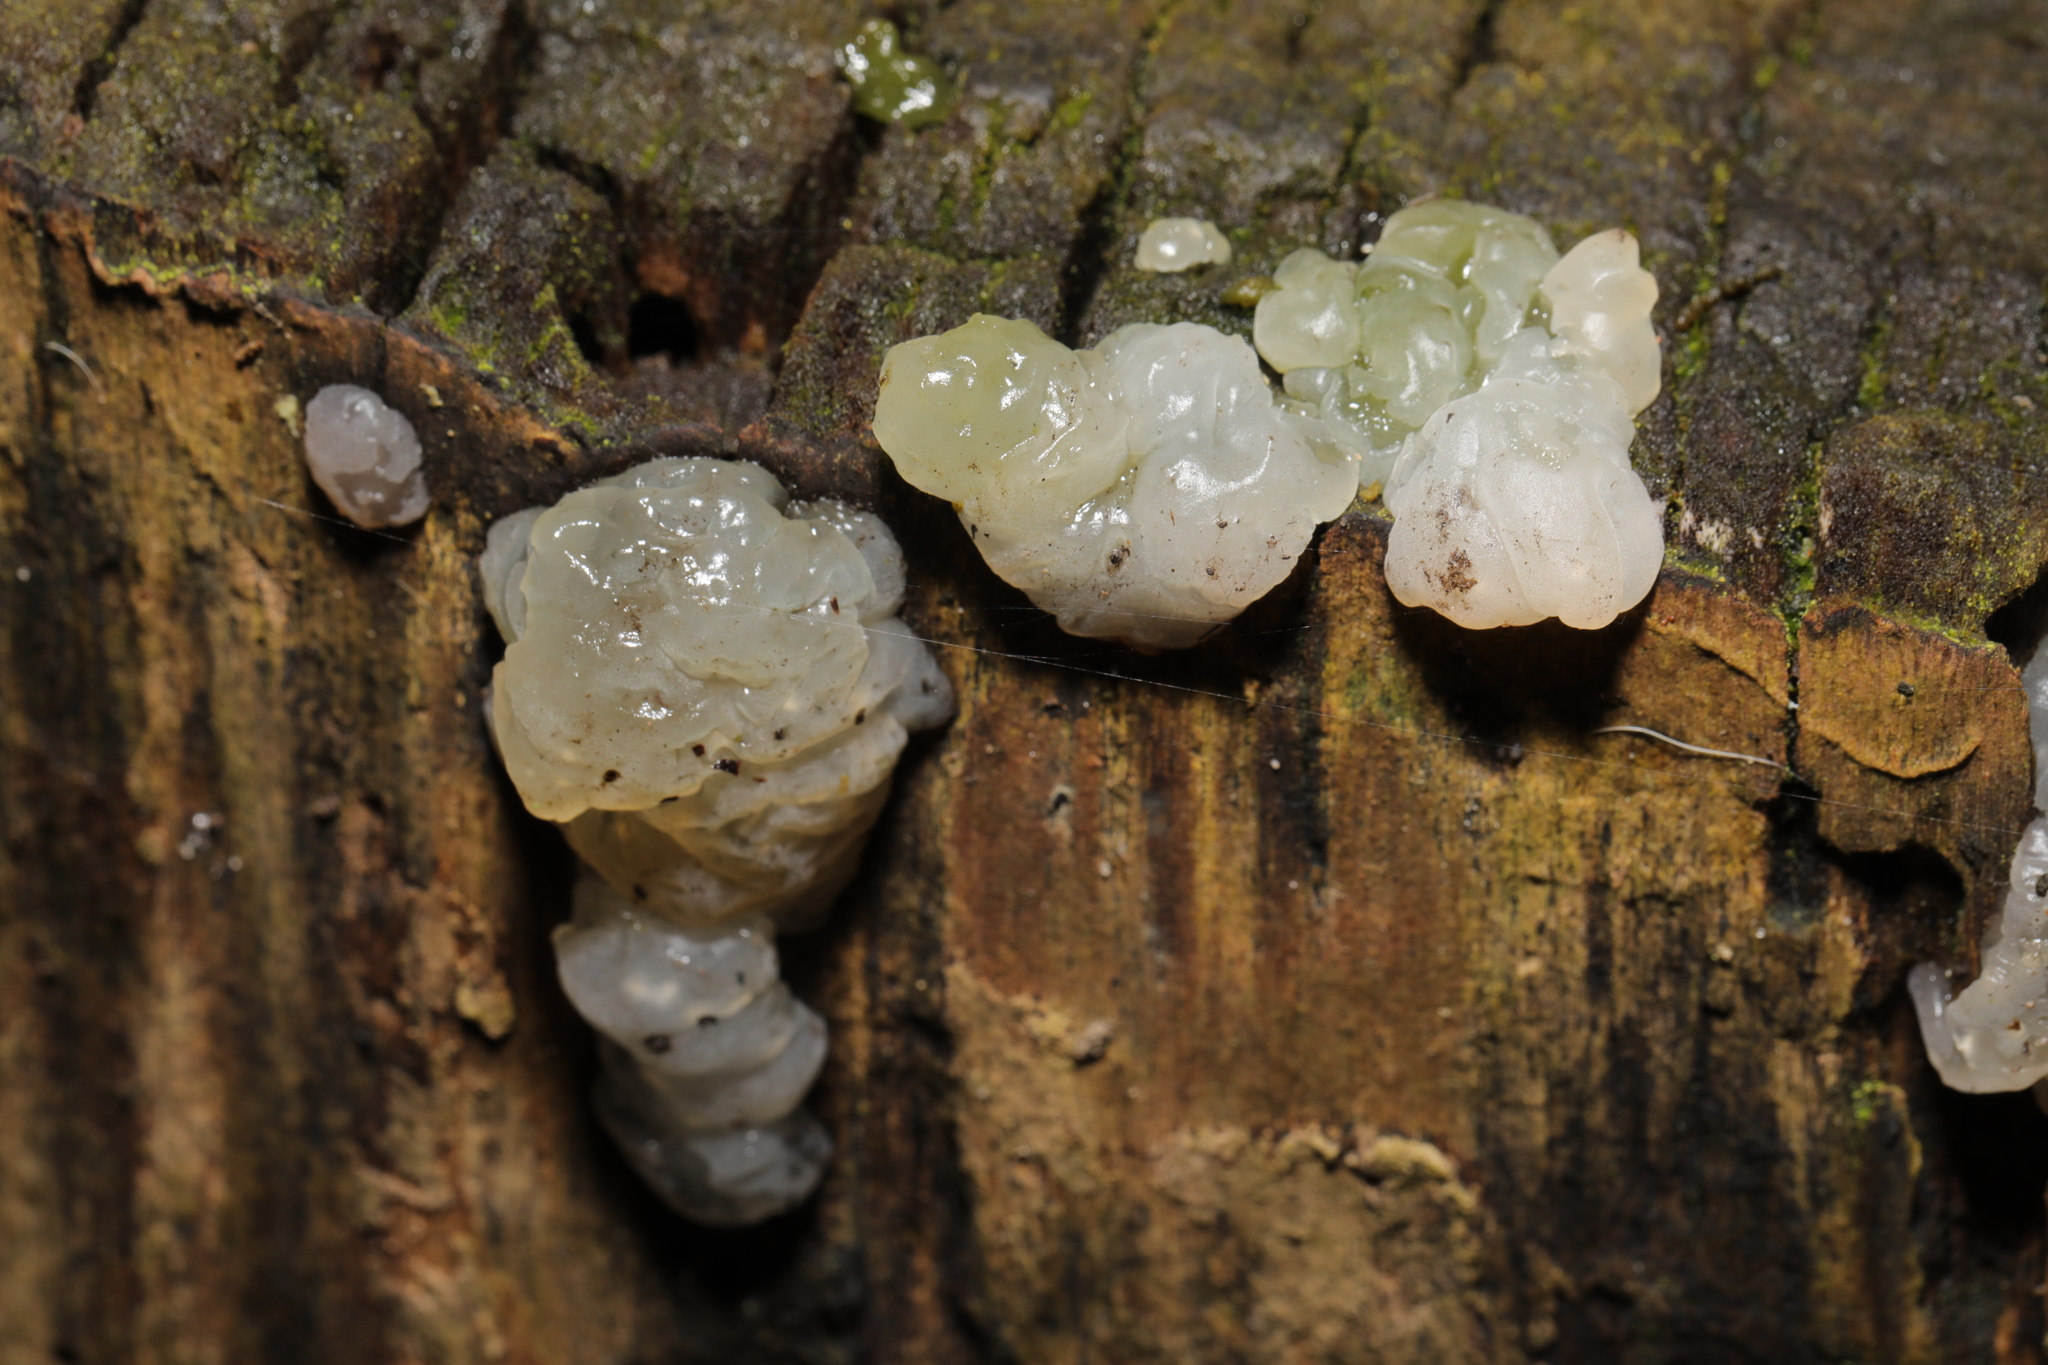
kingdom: Fungi
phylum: Basidiomycota
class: Agaricomycetes
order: Auriculariales
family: Hyaloriaceae
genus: Myxarium
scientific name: Myxarium nucleatum
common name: Crystal brain fungus
